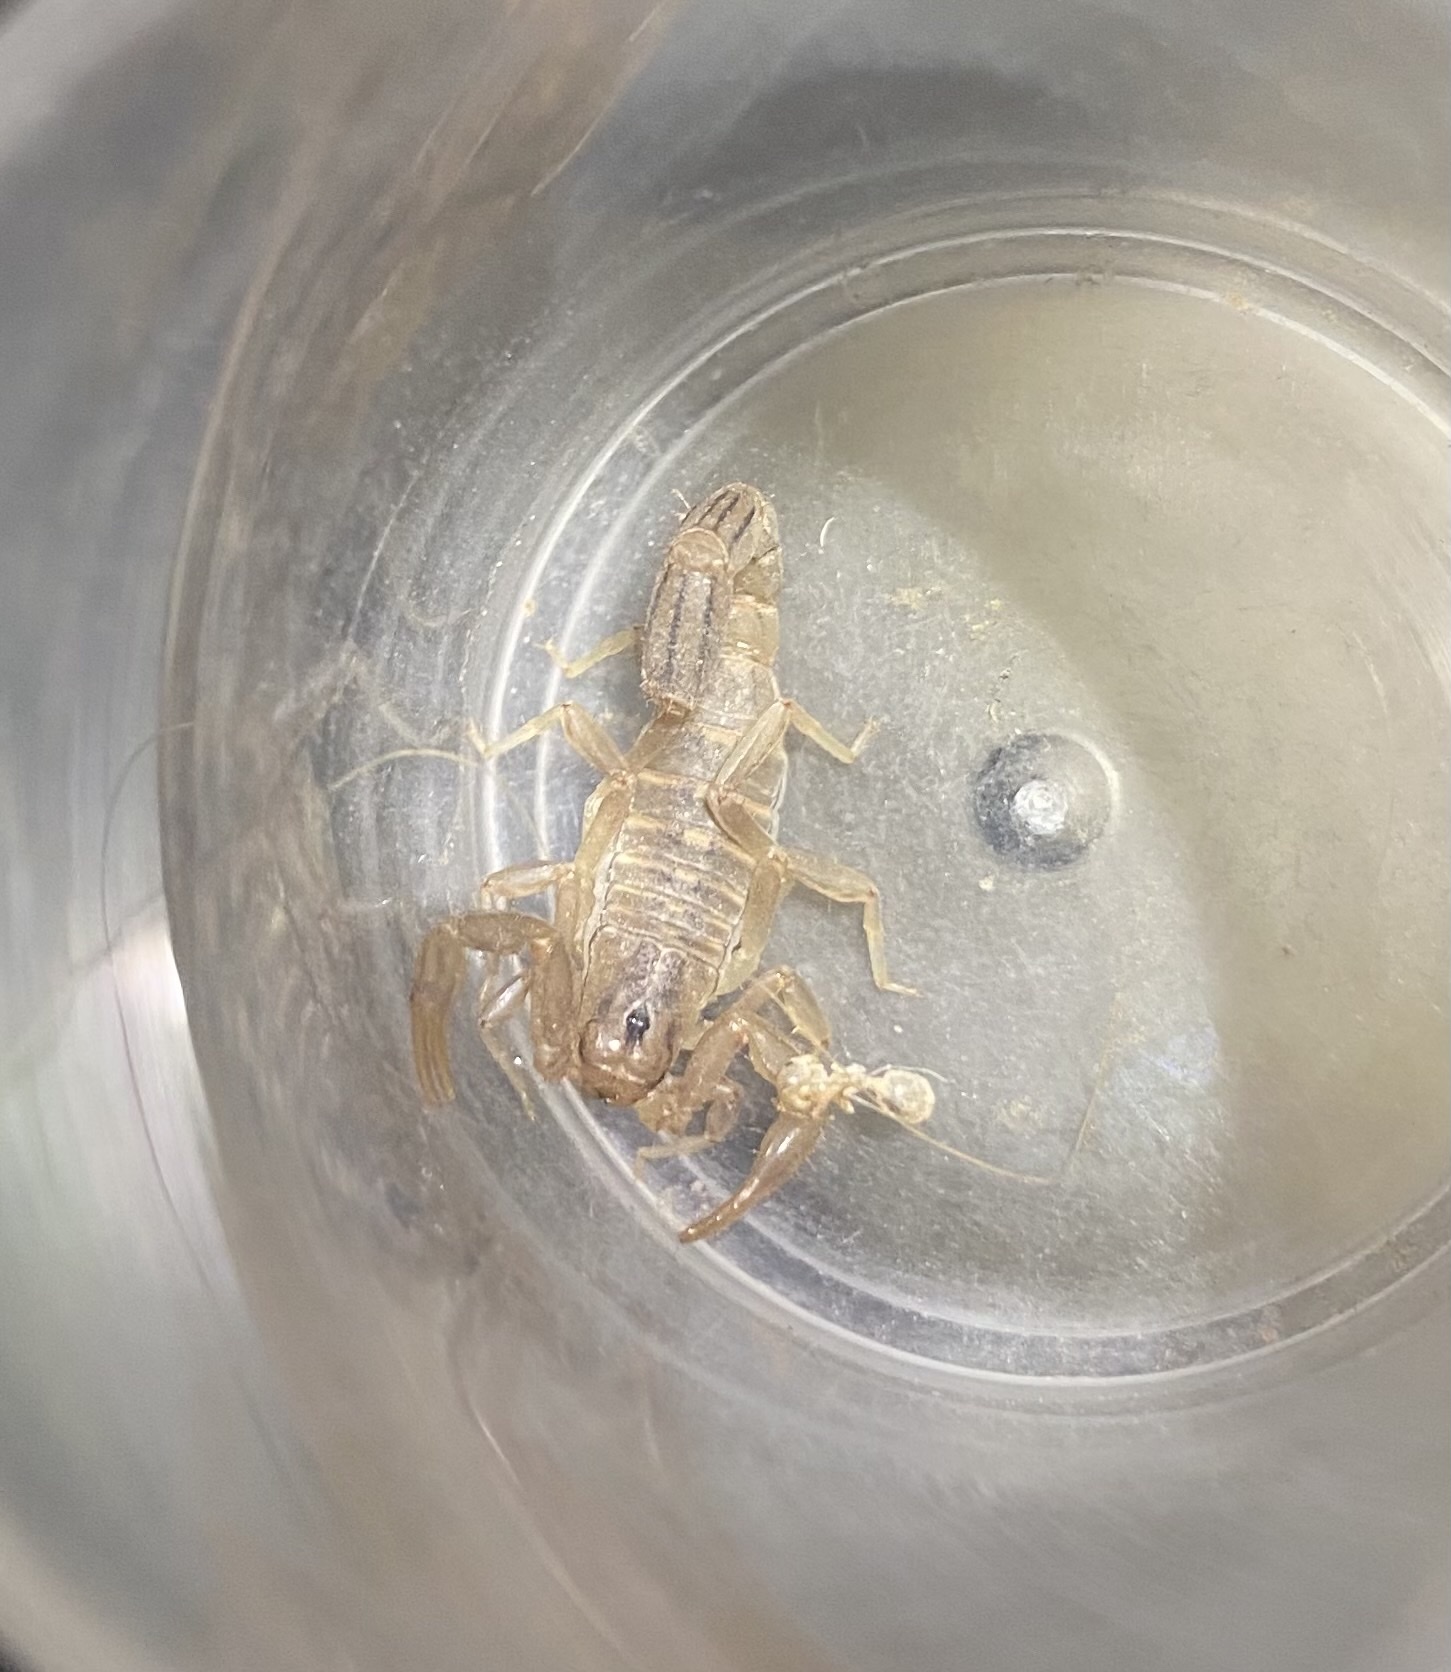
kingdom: Animalia
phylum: Arthropoda
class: Arachnida
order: Scorpiones
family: Vaejovidae
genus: Paravaejovis
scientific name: Paravaejovis spinigerus
